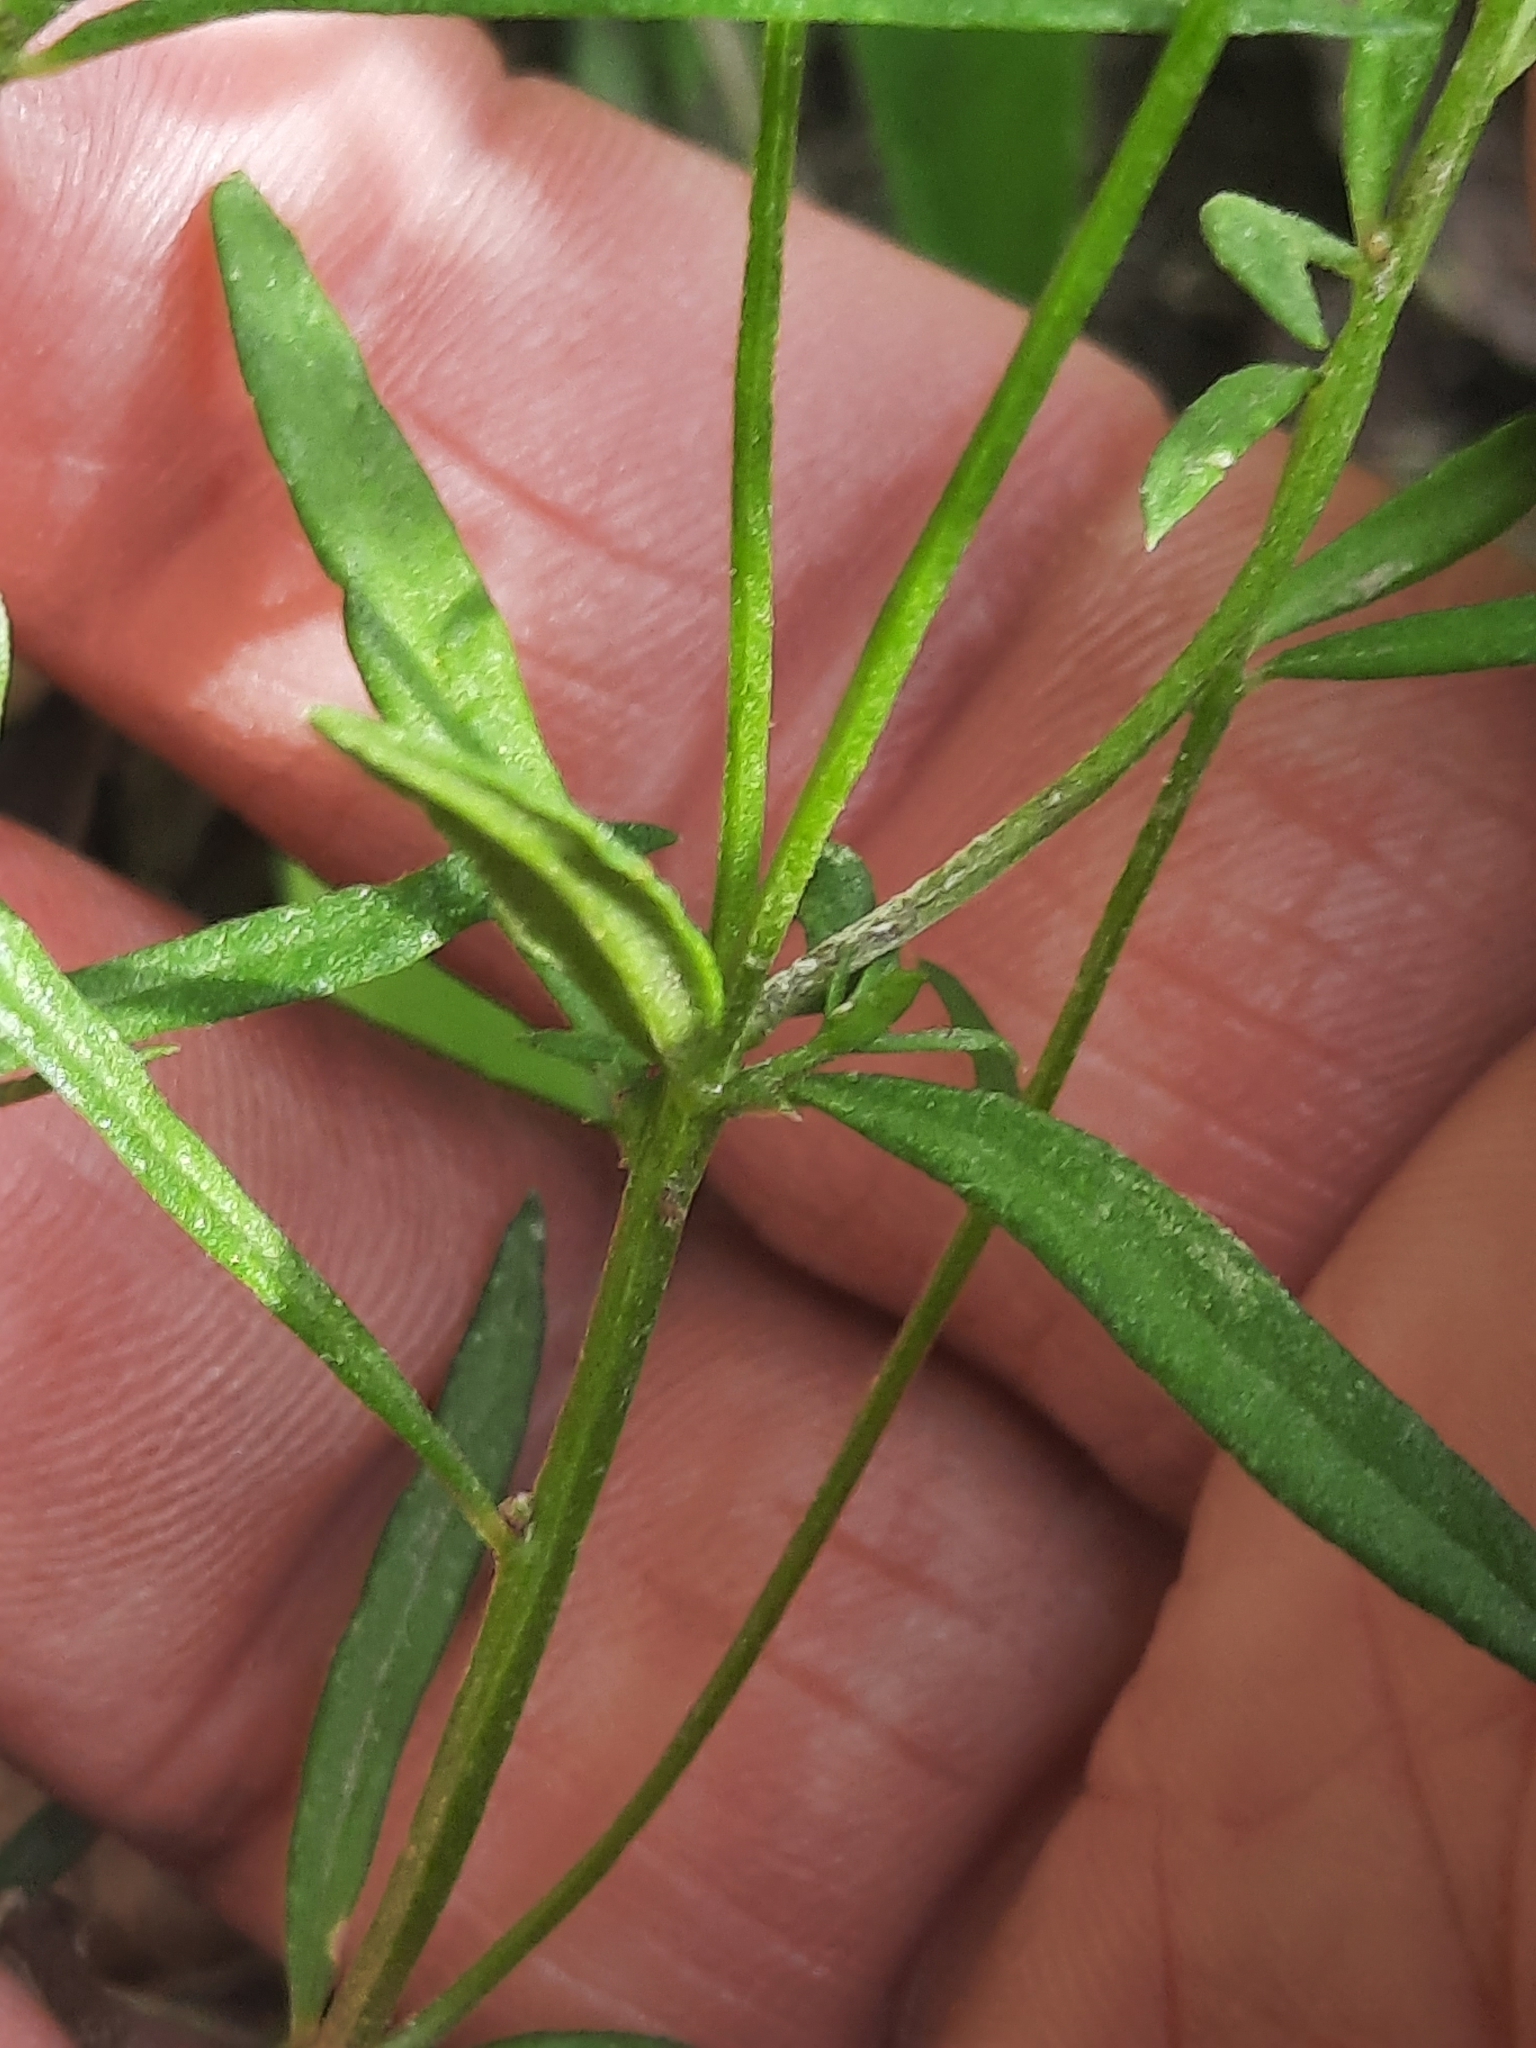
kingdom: Plantae
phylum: Tracheophyta
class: Magnoliopsida
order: Fabales
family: Polygalaceae
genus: Polygala
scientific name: Polygala verticillata
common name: Whorl milkwort
